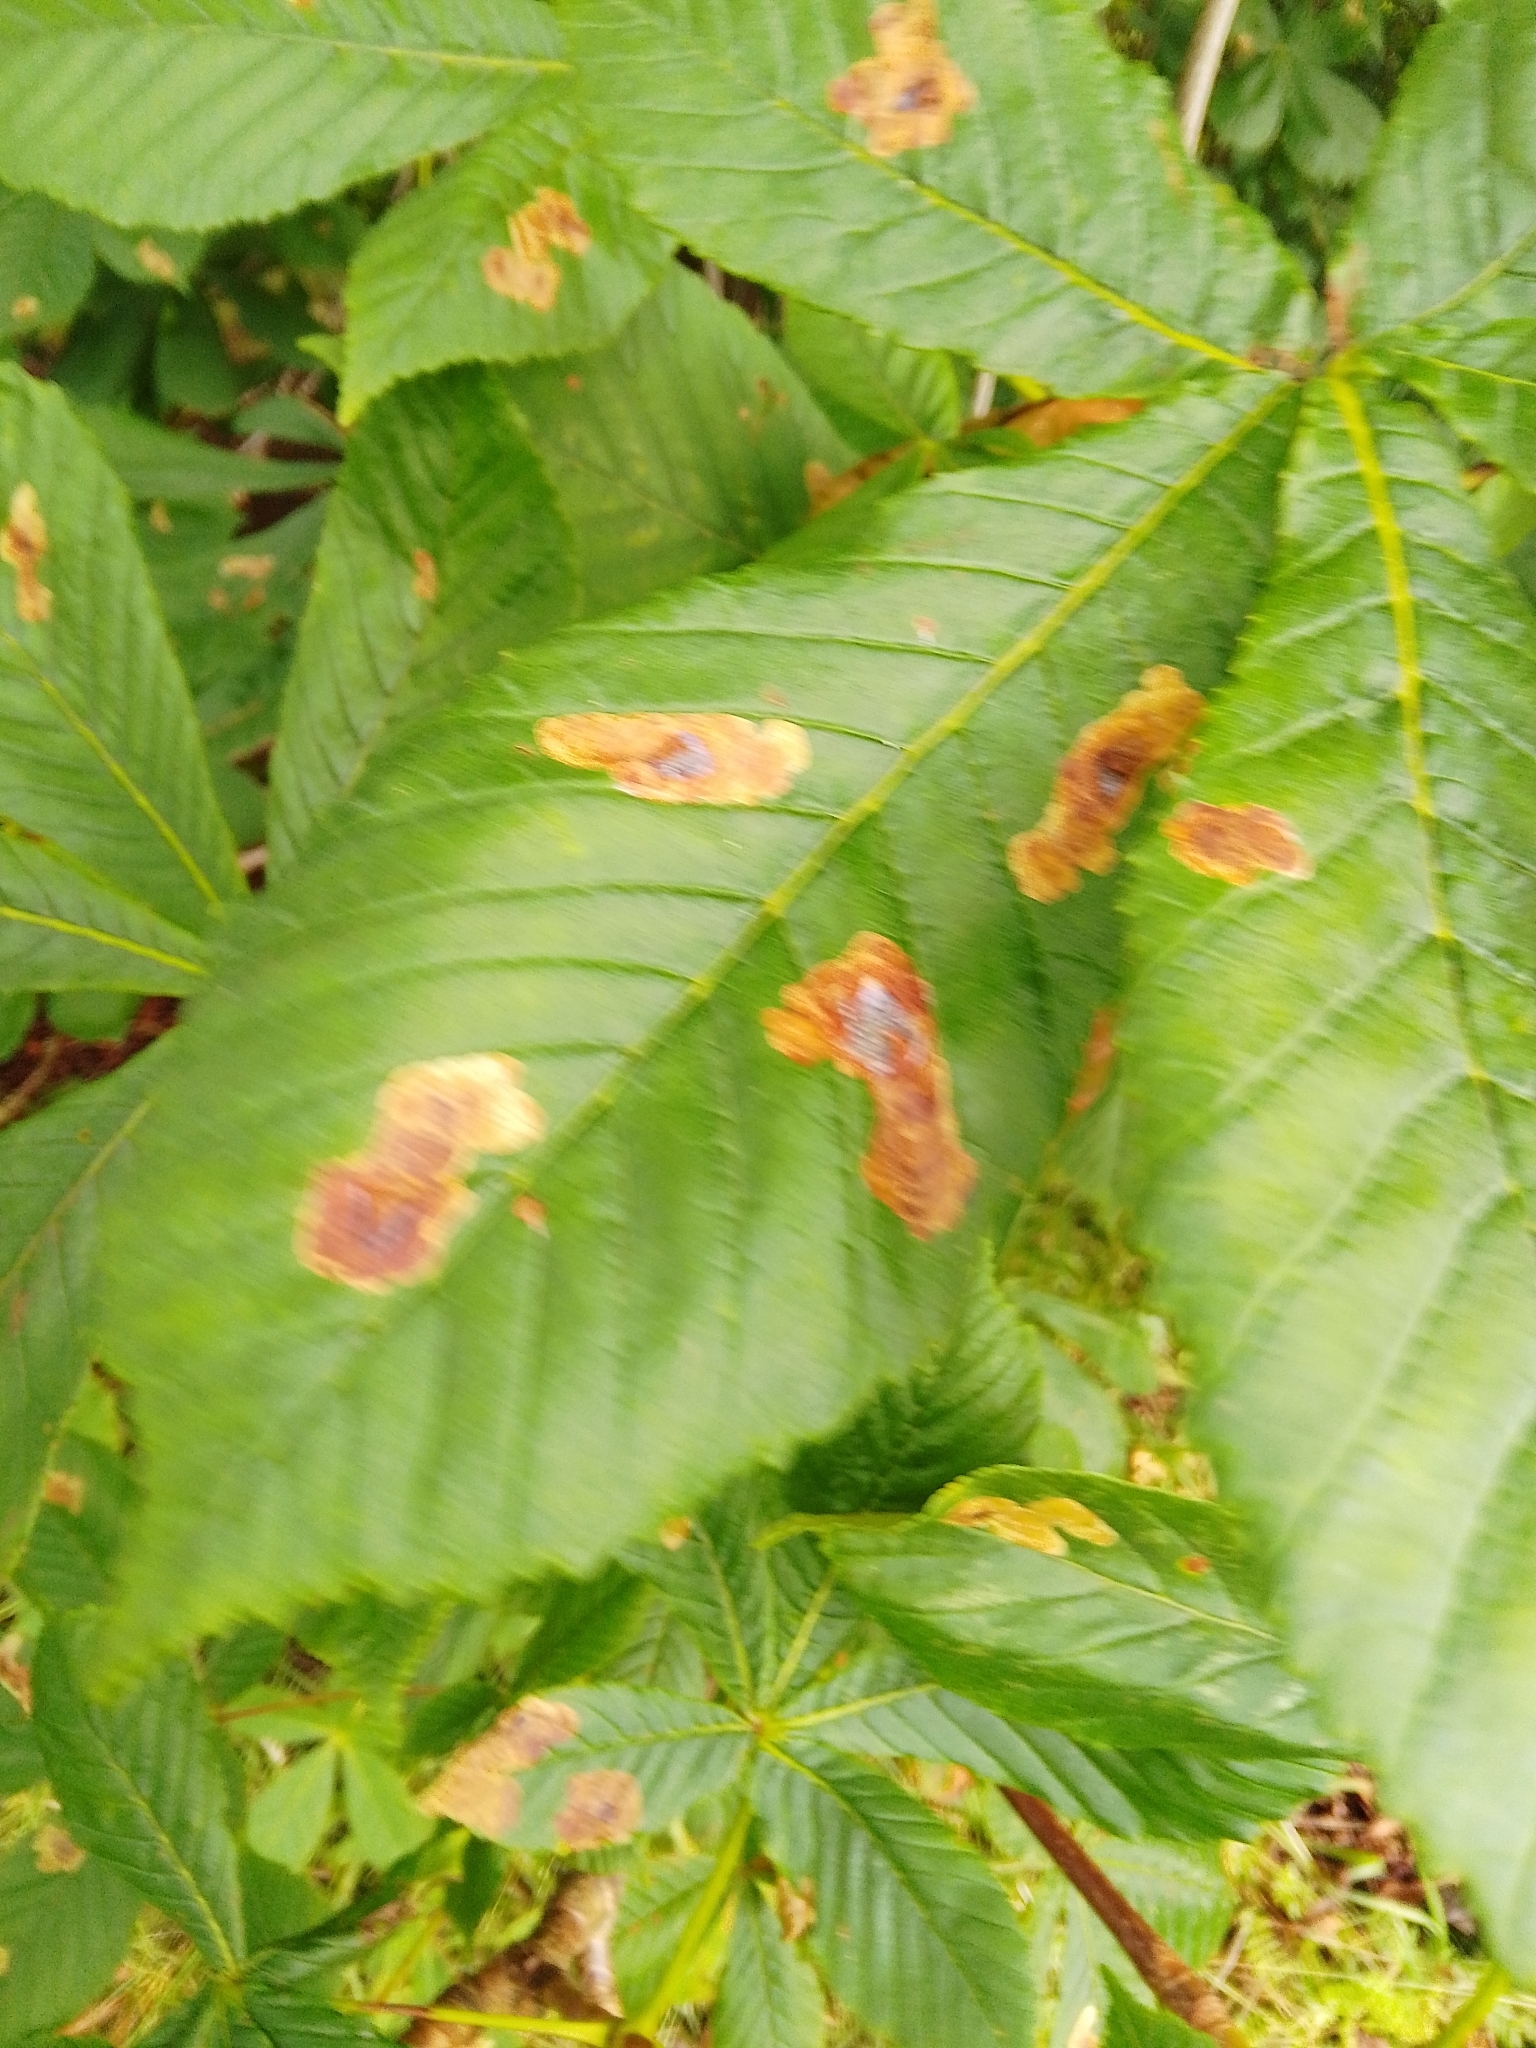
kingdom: Animalia
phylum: Arthropoda
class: Insecta
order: Lepidoptera
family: Gracillariidae
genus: Cameraria
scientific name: Cameraria ohridella
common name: Horse-chestnut leaf-miner
